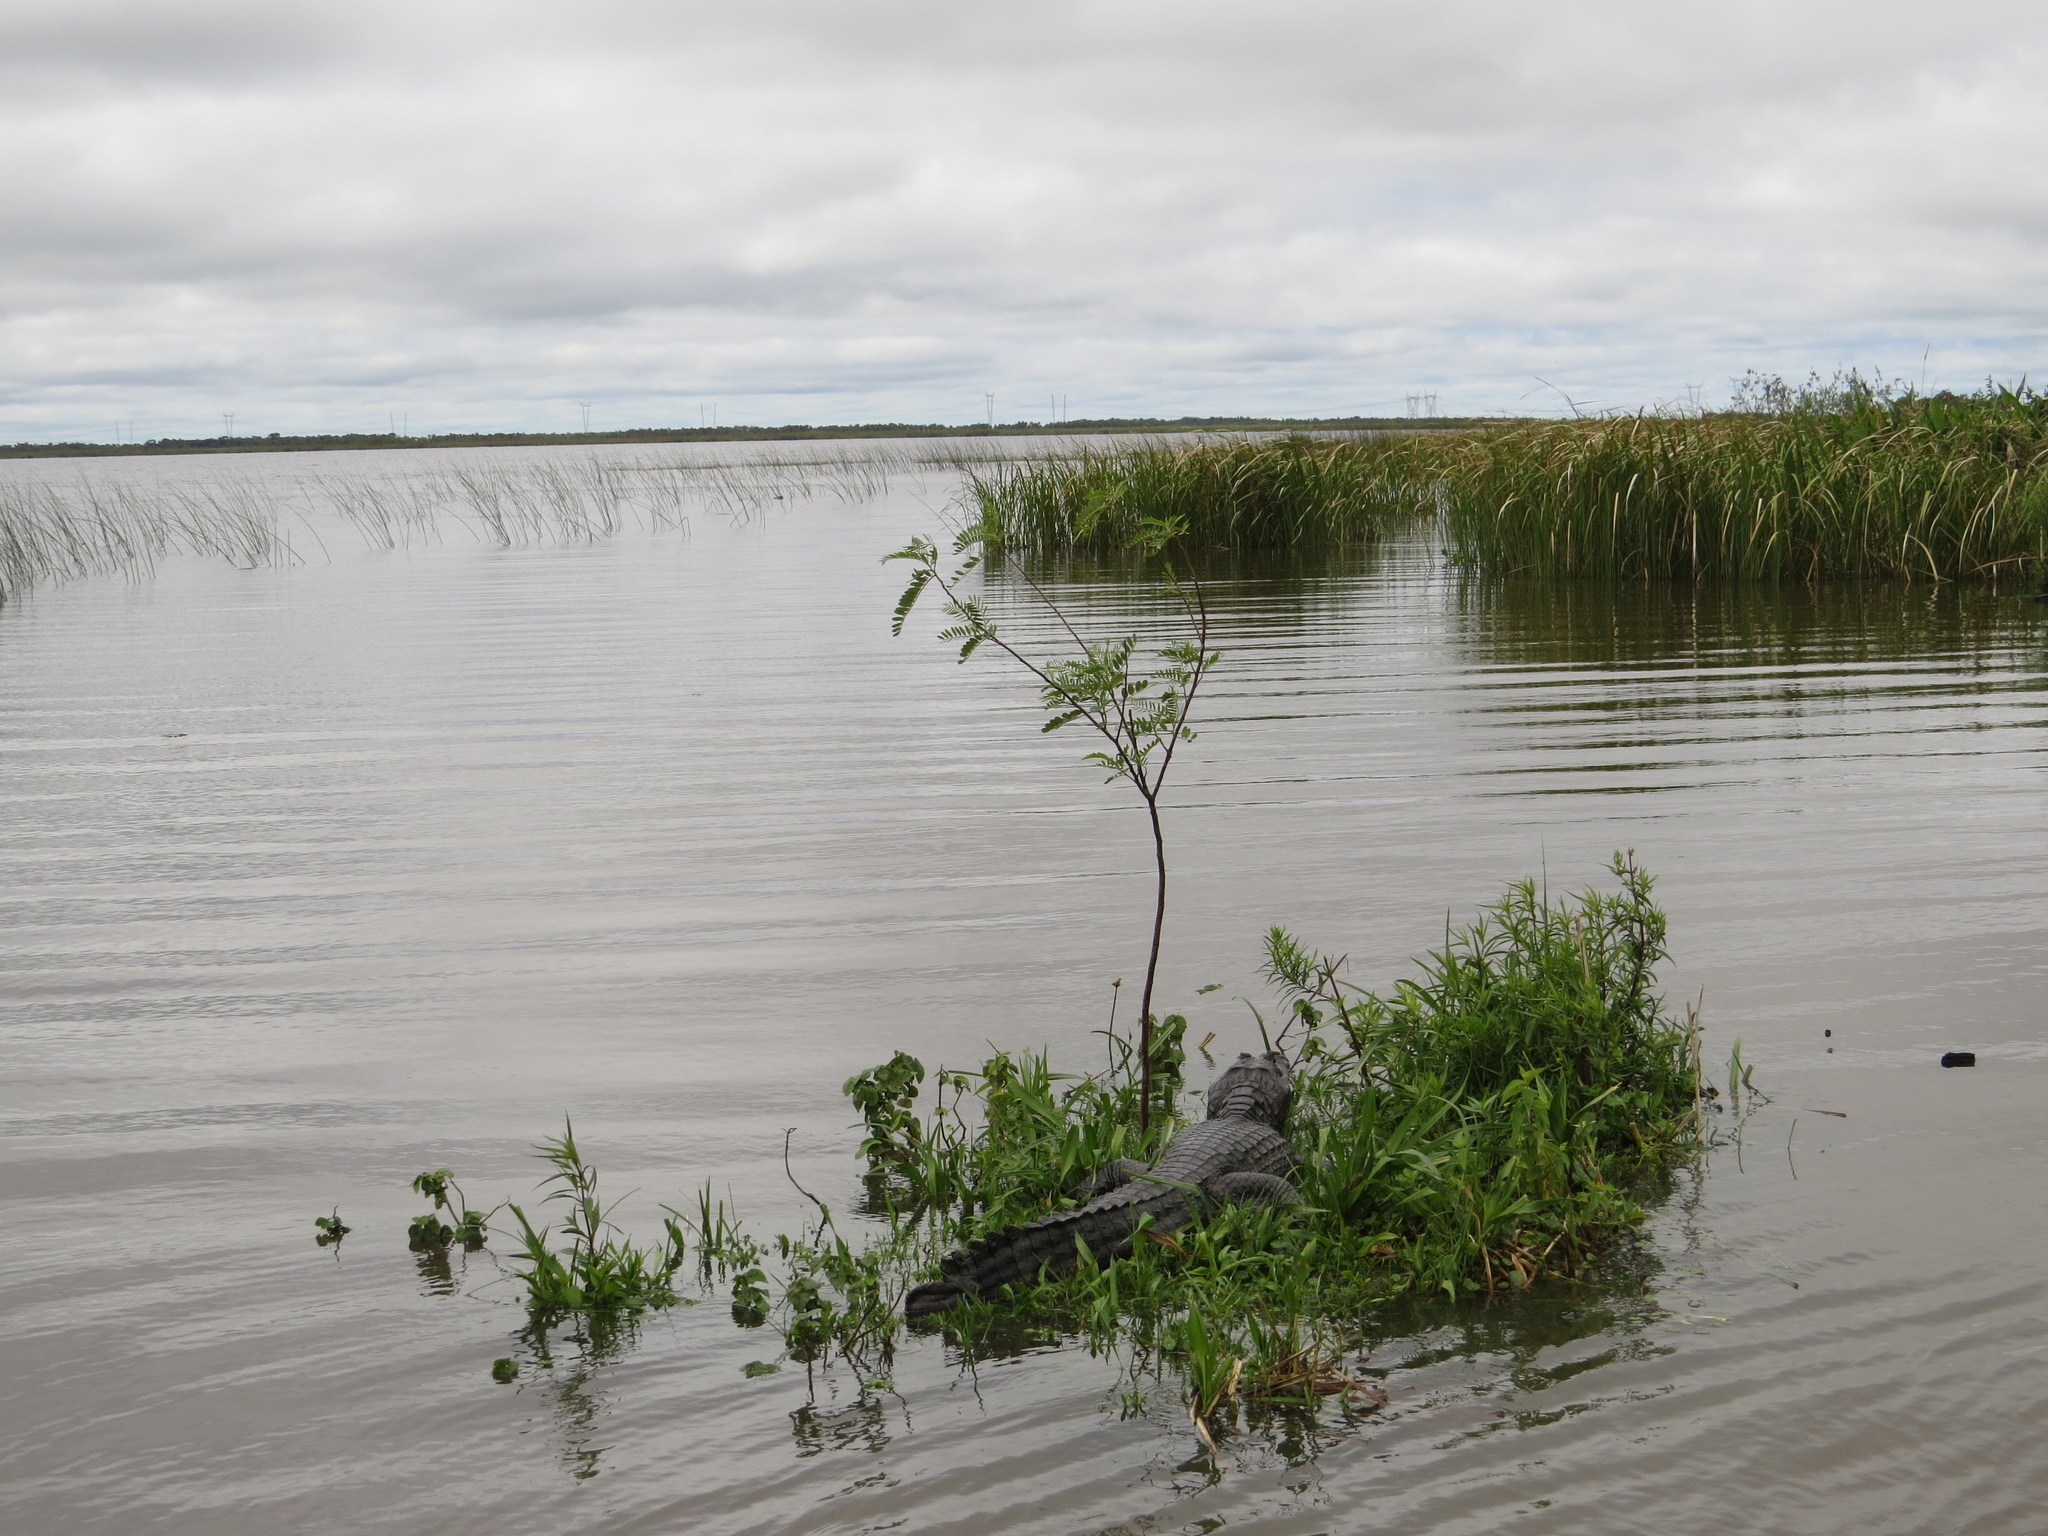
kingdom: Animalia
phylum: Chordata
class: Crocodylia
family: Alligatoridae
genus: Caiman
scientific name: Caiman yacare
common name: Yacare caiman
